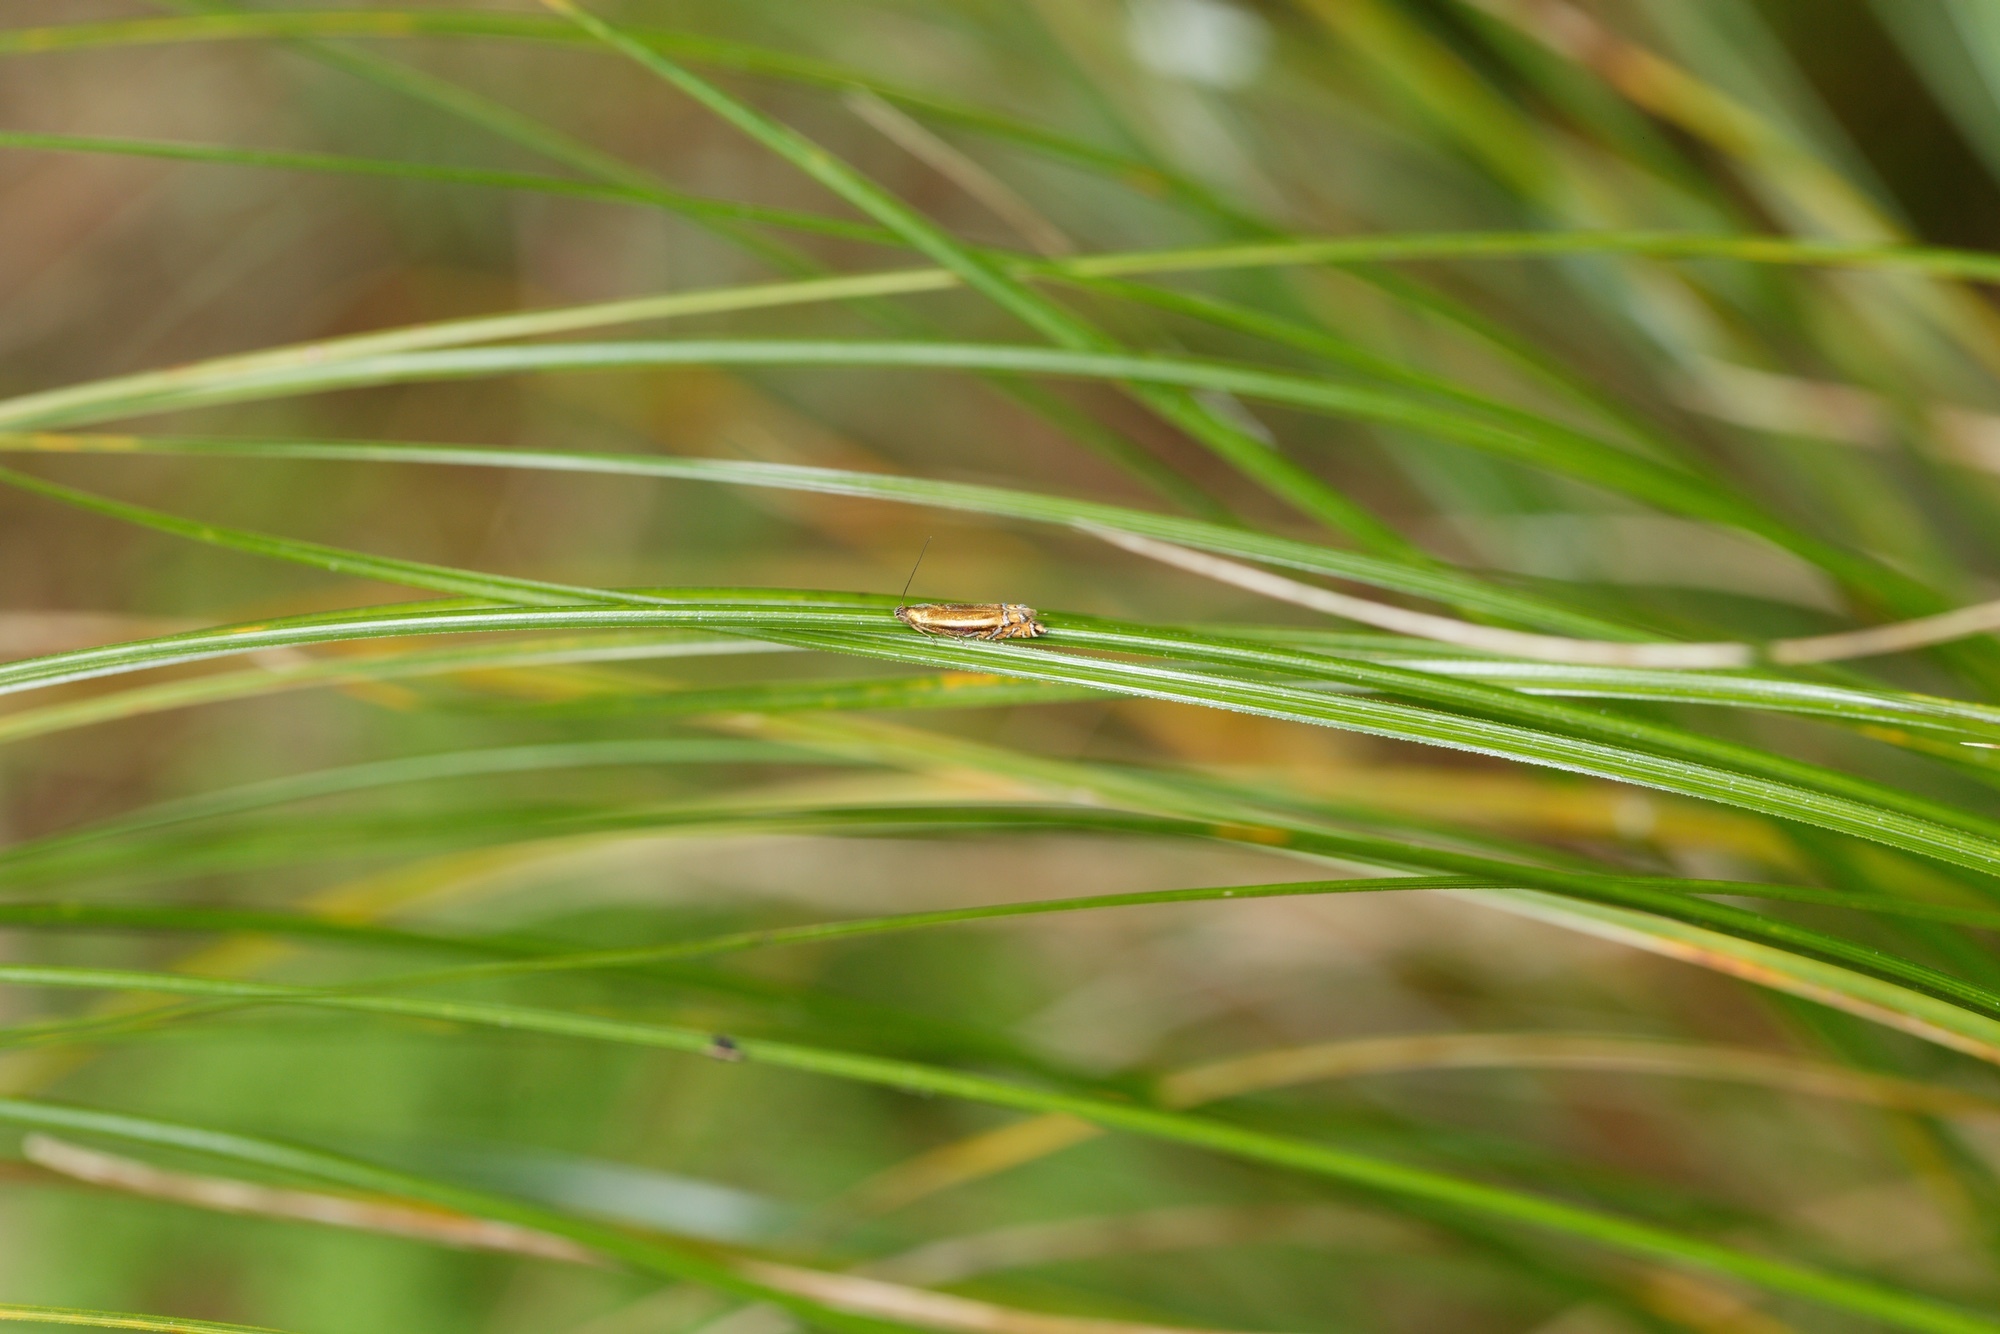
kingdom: Animalia
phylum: Arthropoda
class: Insecta
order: Lepidoptera
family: Glyphipterigidae
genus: Glyphipterix
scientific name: Glyphipterix scintilella
